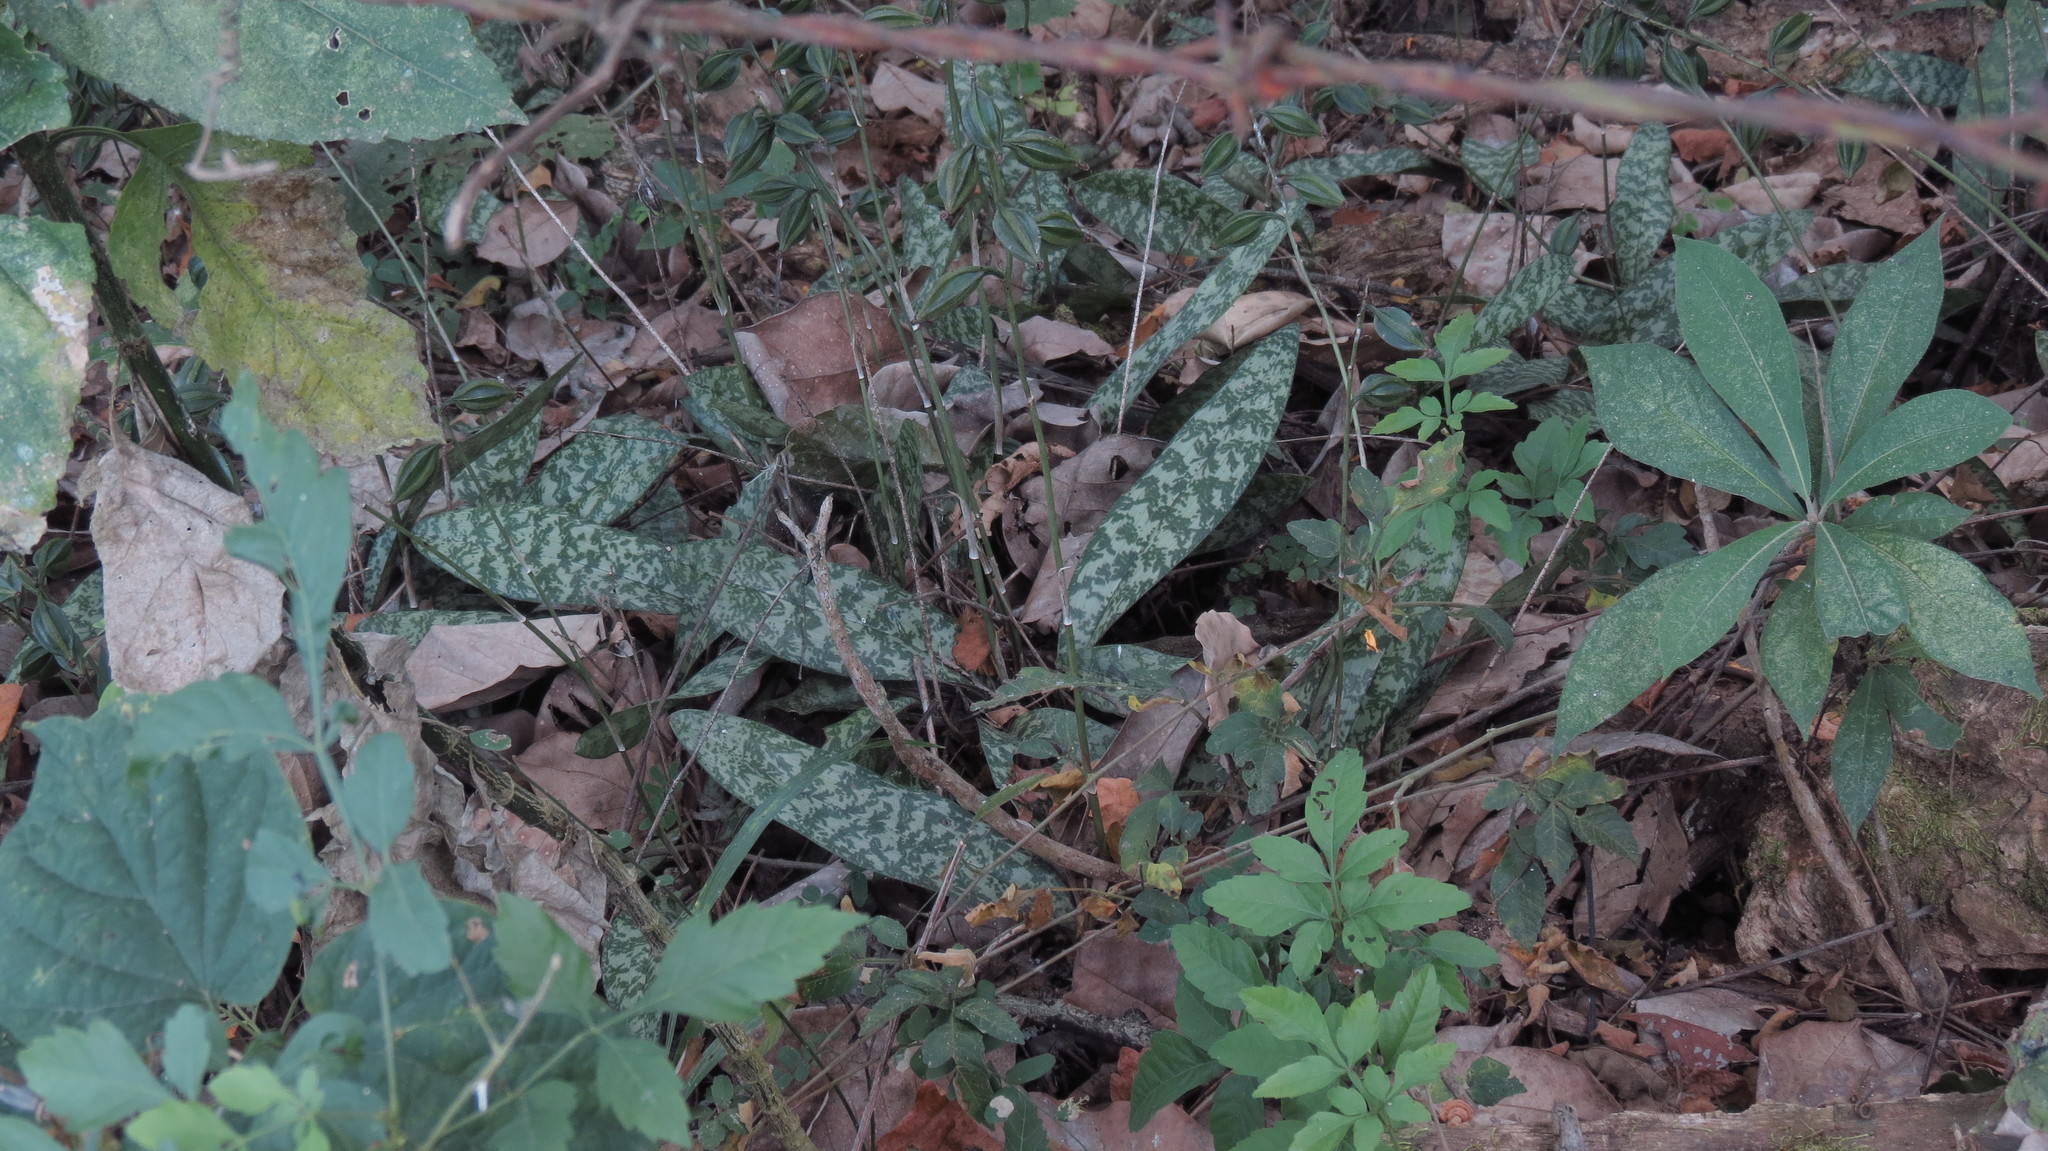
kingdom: Plantae
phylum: Tracheophyta
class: Liliopsida
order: Asparagales
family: Orchidaceae
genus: Eulophia
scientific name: Eulophia maculata
